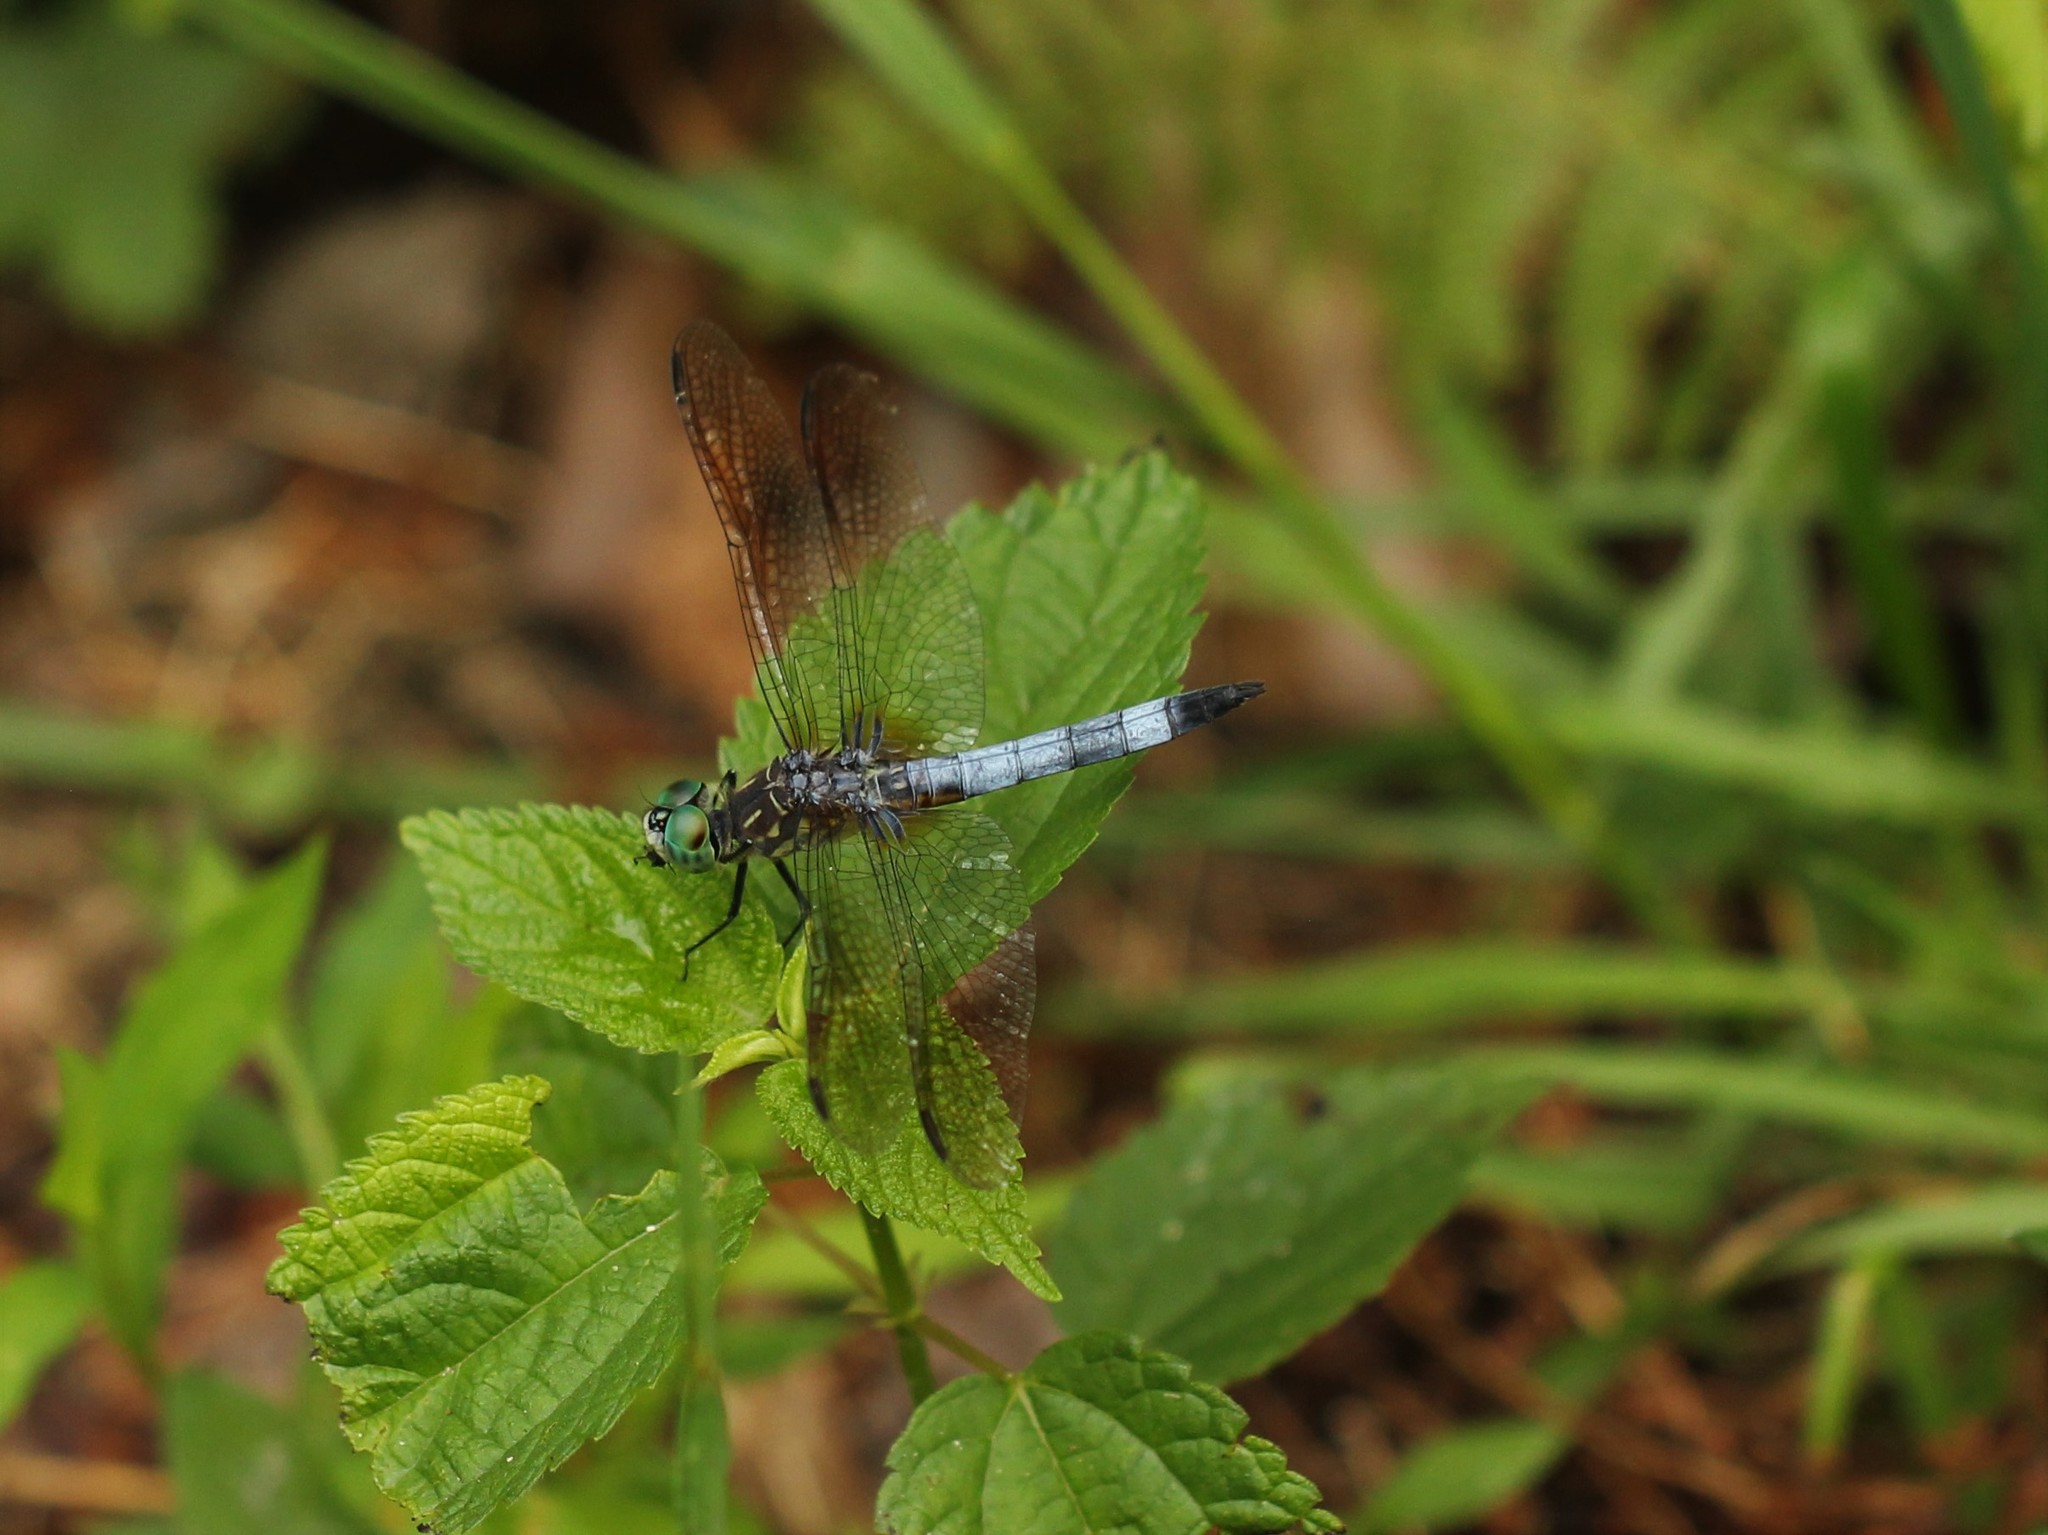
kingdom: Animalia
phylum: Arthropoda
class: Insecta
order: Odonata
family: Libellulidae
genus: Pachydiplax
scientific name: Pachydiplax longipennis
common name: Blue dasher
